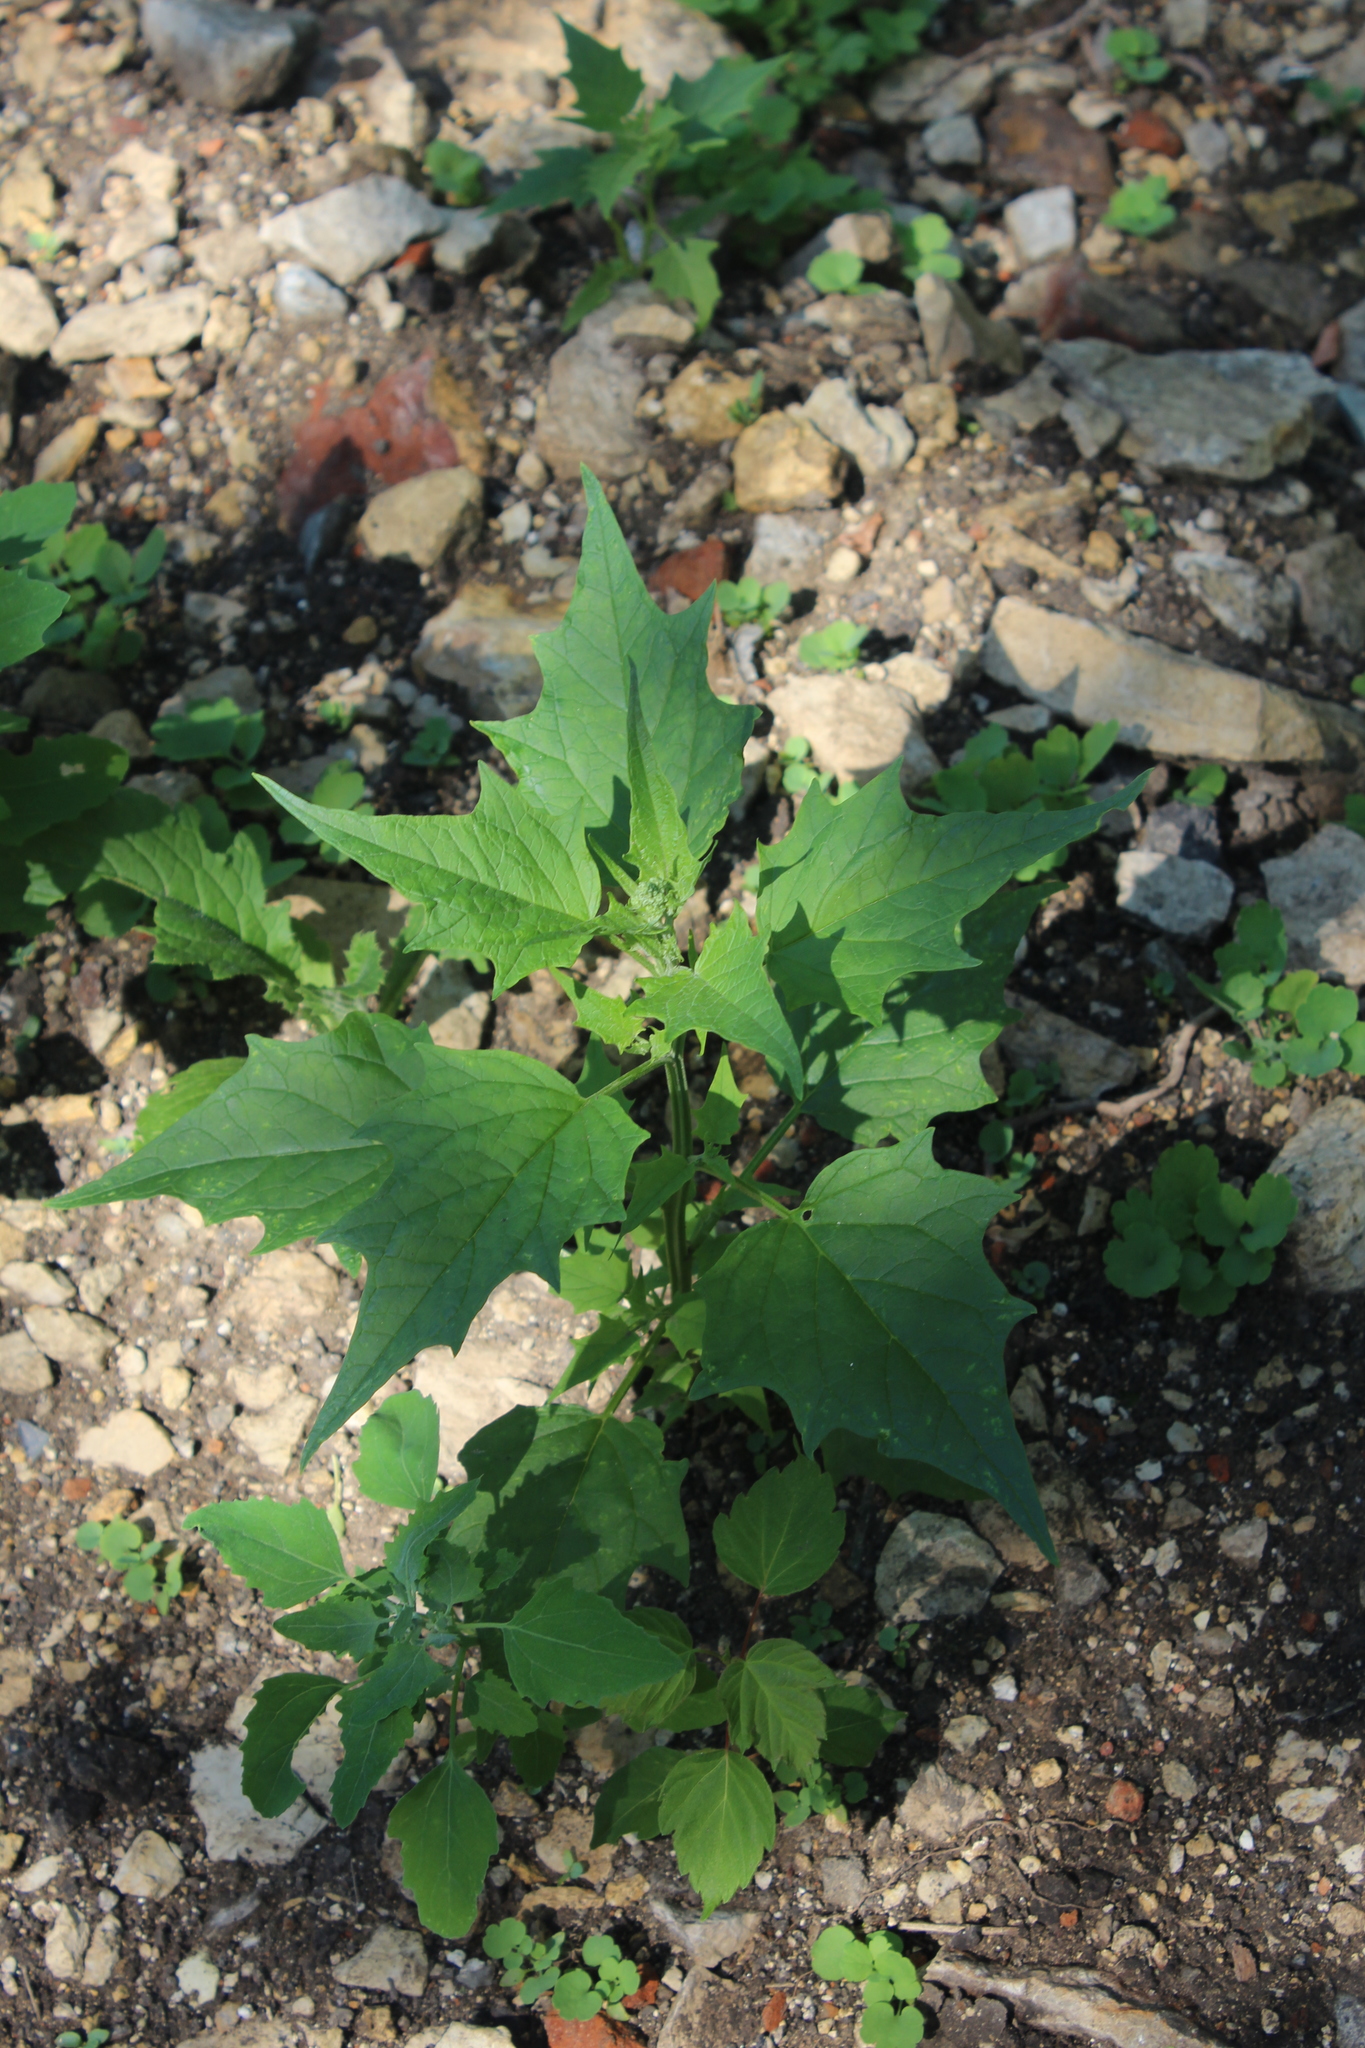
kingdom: Plantae
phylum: Tracheophyta
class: Magnoliopsida
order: Caryophyllales
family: Amaranthaceae
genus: Chenopodiastrum
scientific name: Chenopodiastrum hybridum
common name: Mapleleaf goosefoot
